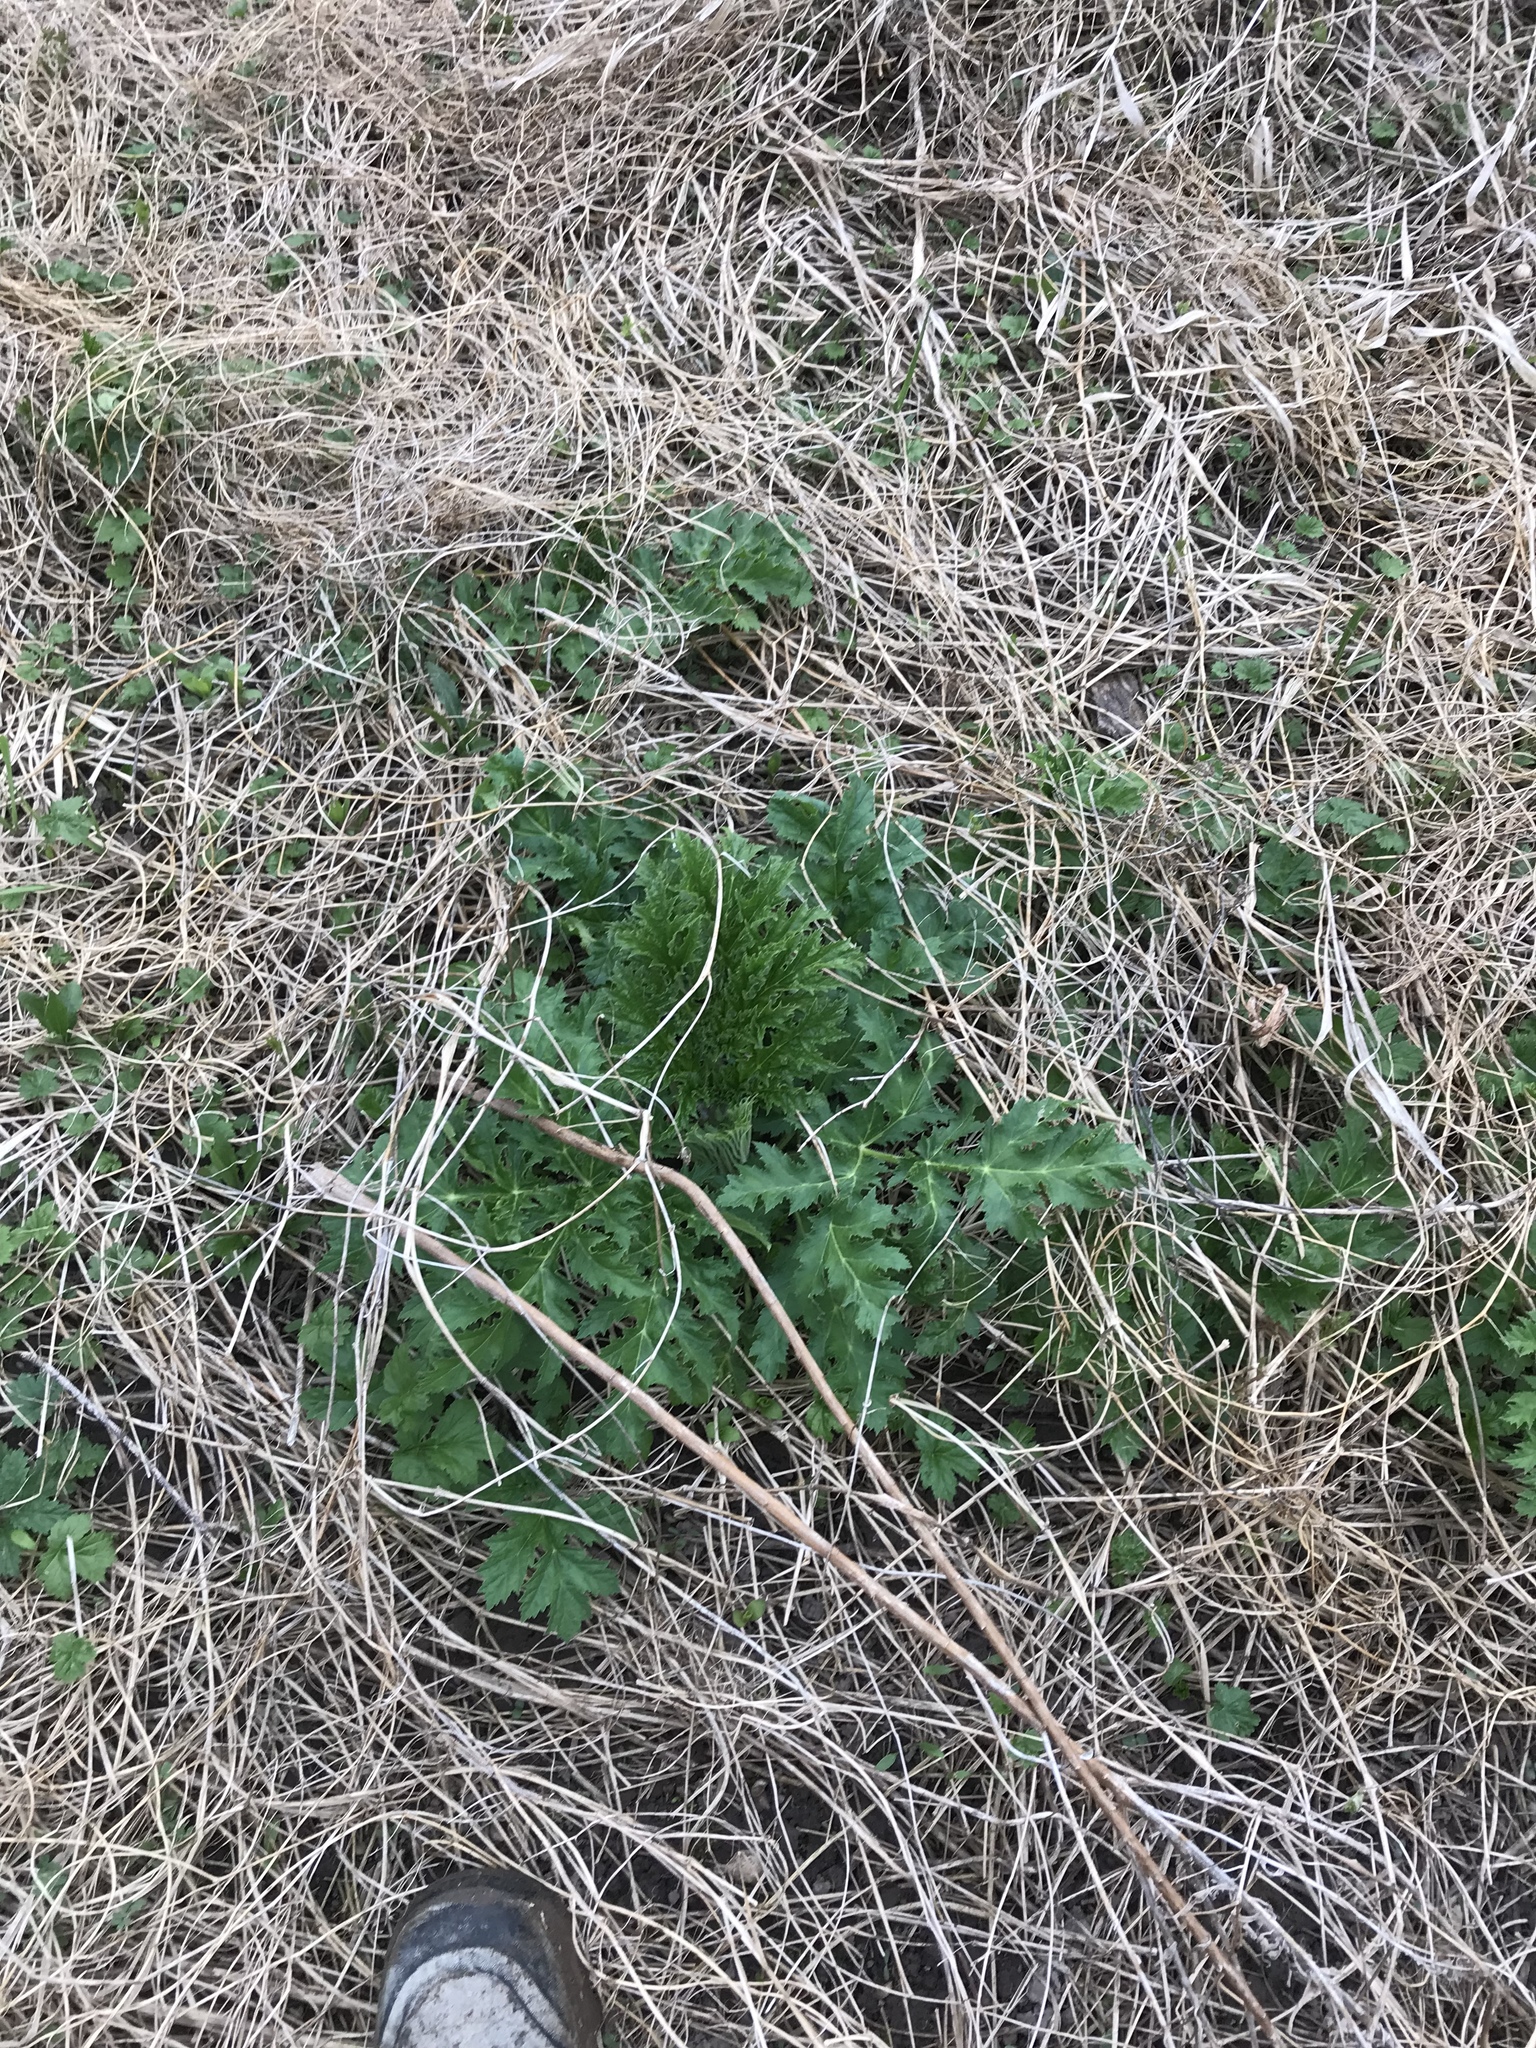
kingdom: Plantae
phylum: Tracheophyta
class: Magnoliopsida
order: Apiales
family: Apiaceae
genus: Heracleum
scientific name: Heracleum mantegazzianum
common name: Giant hogweed
